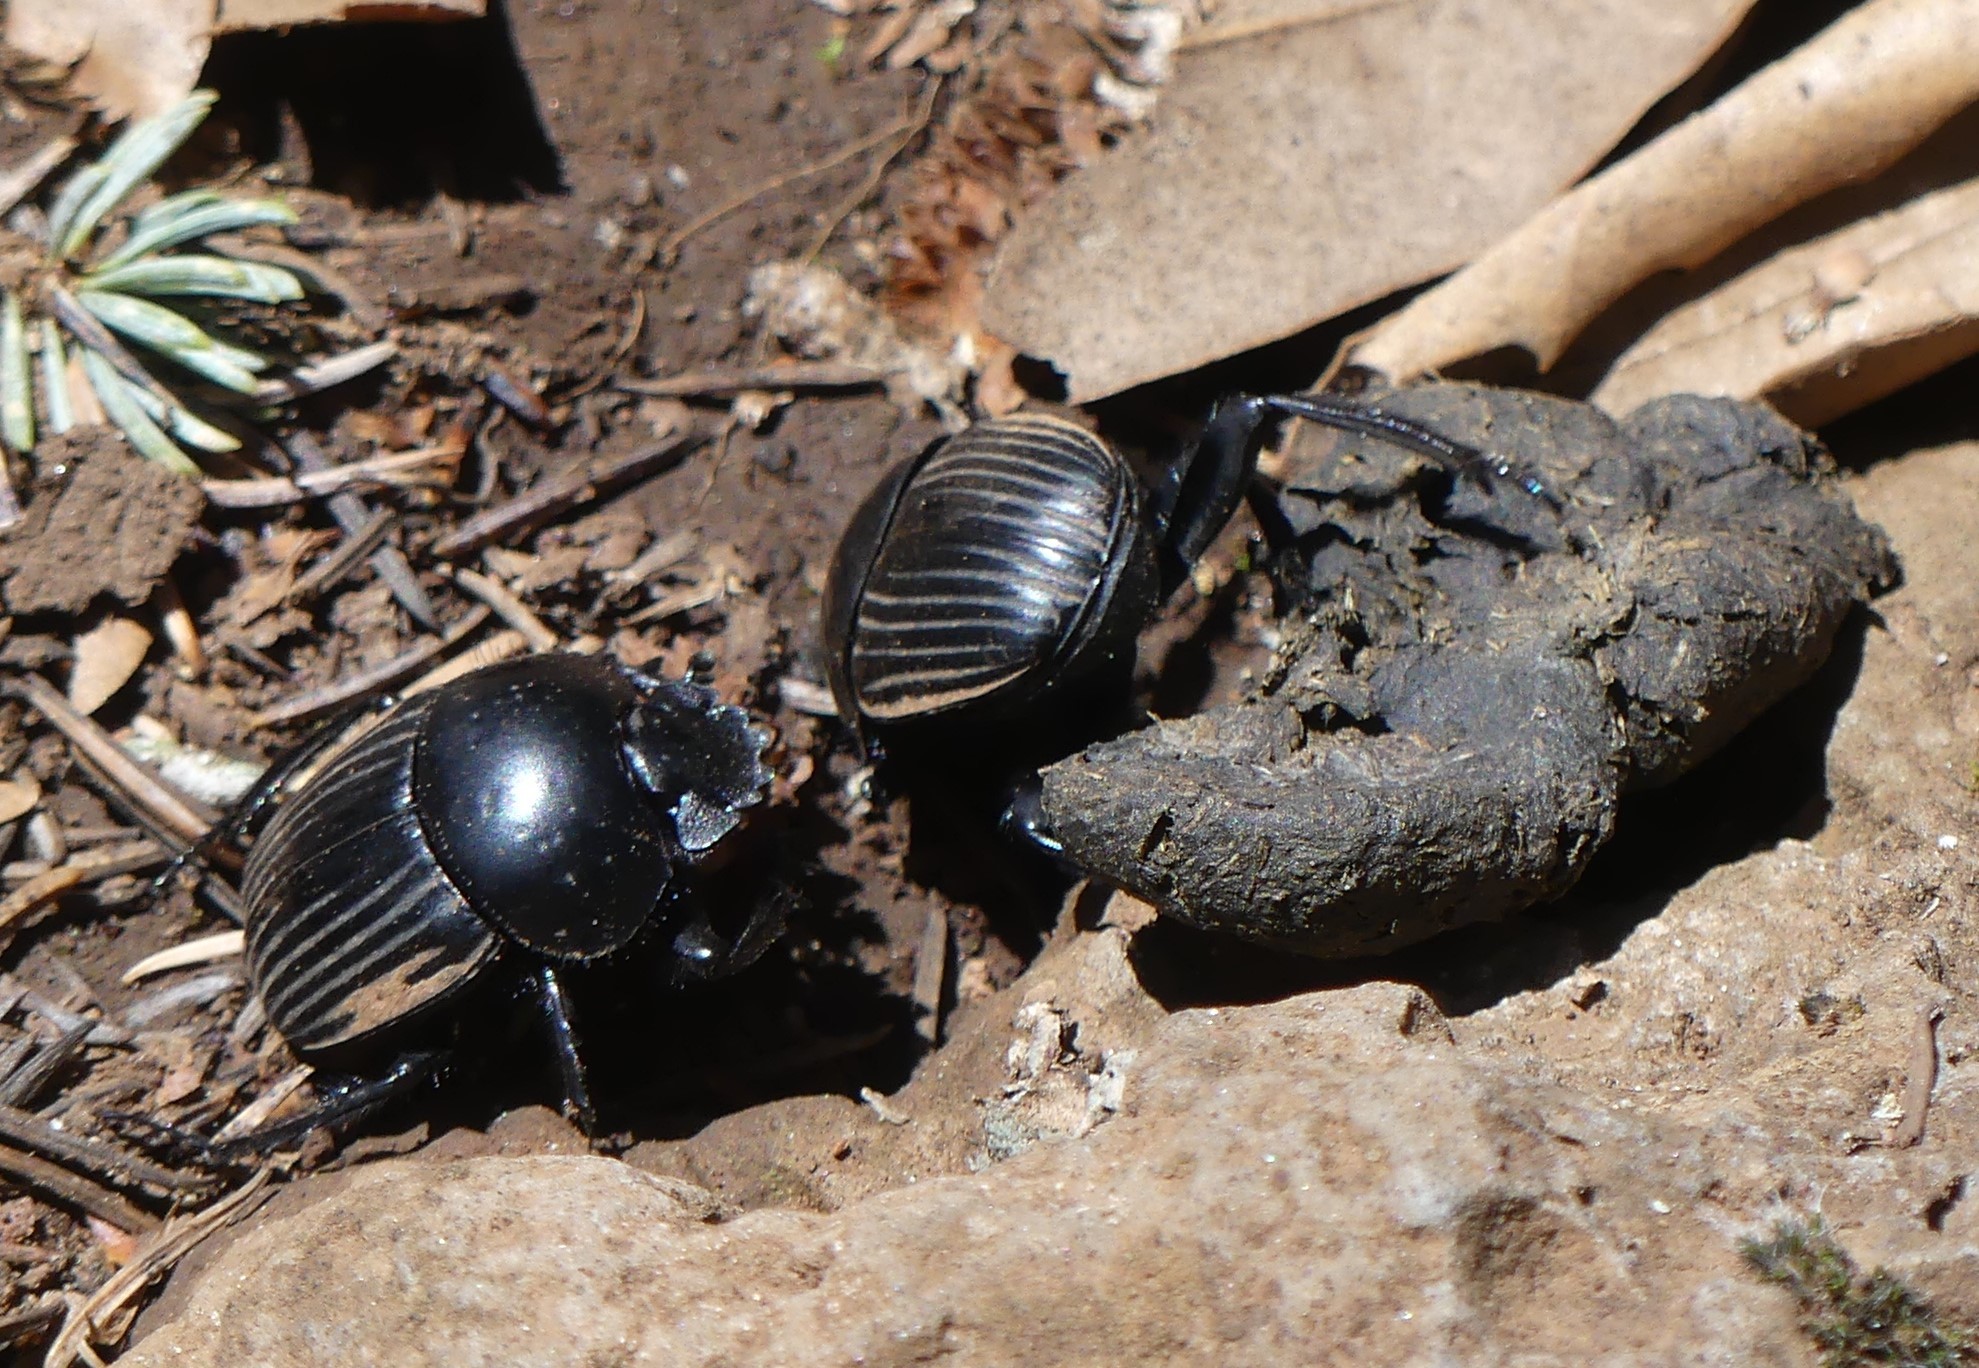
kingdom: Animalia
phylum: Arthropoda
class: Insecta
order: Coleoptera
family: Scarabaeidae
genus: Ateuchetus
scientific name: Ateuchetus laticollis
